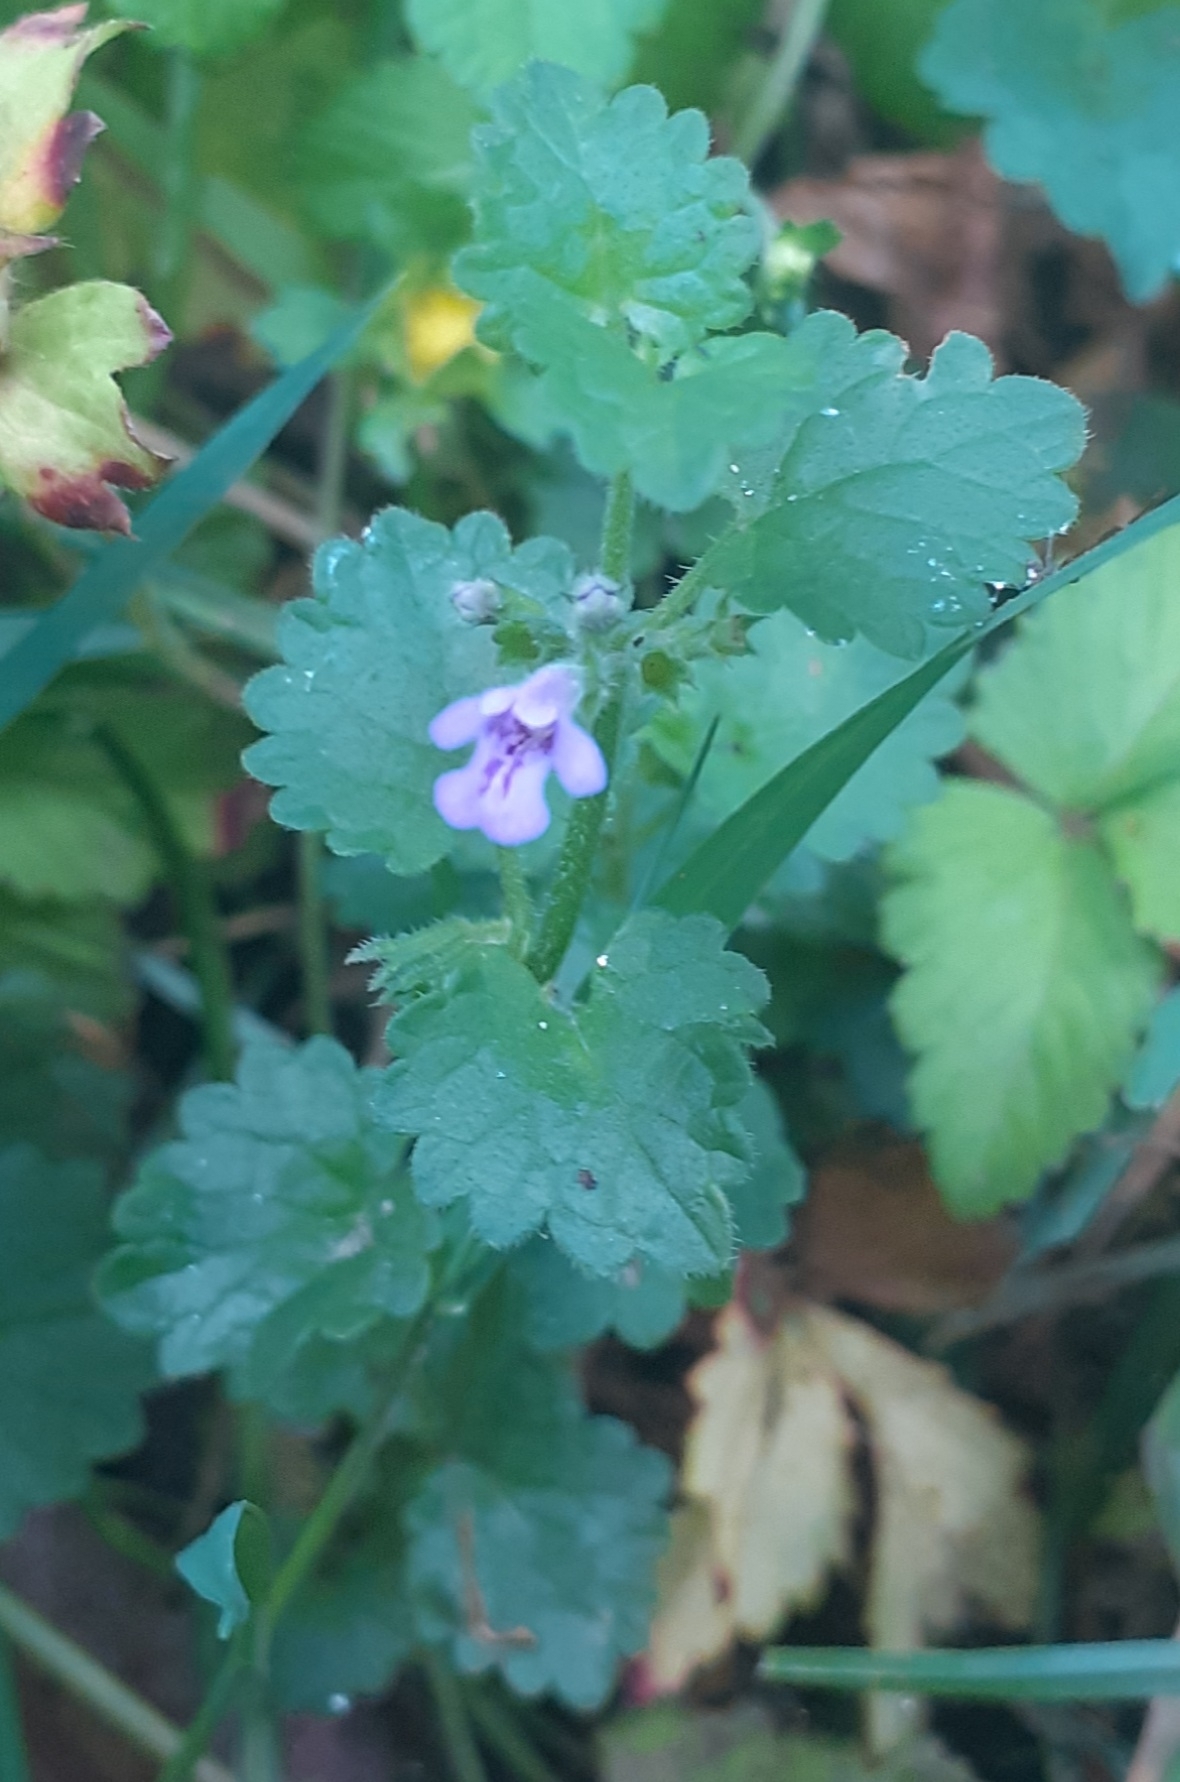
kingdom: Plantae
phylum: Tracheophyta
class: Magnoliopsida
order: Lamiales
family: Lamiaceae
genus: Glechoma
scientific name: Glechoma hederacea
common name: Ground ivy
